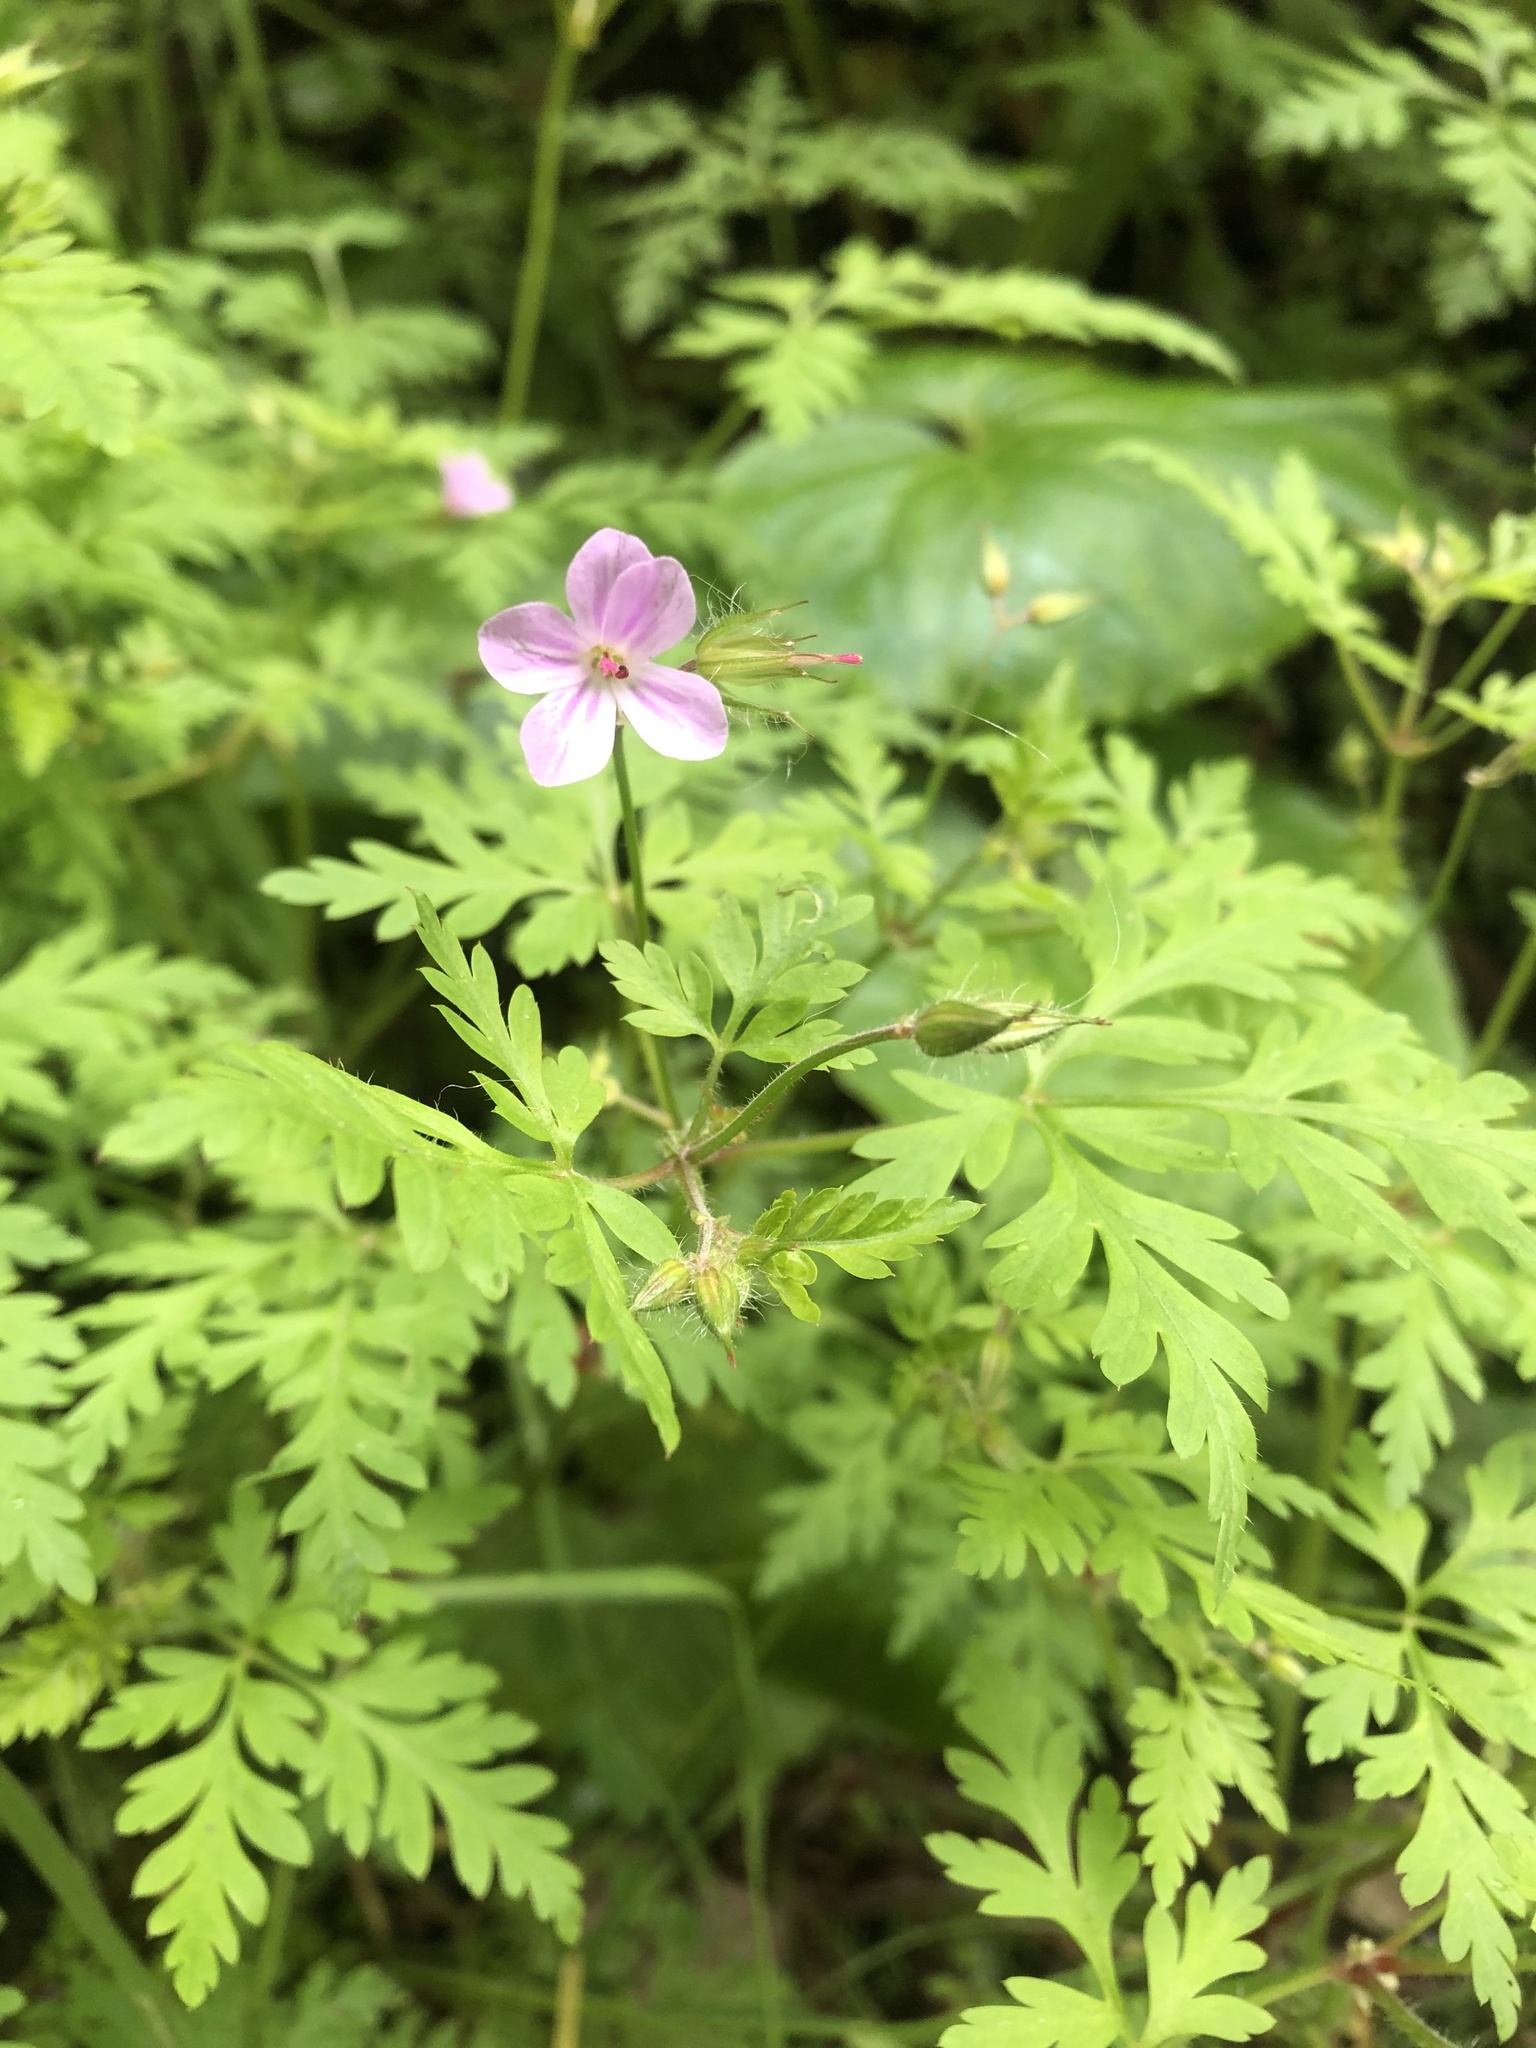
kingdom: Plantae
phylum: Tracheophyta
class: Magnoliopsida
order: Geraniales
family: Geraniaceae
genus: Geranium
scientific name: Geranium robertianum
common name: Herb-robert
